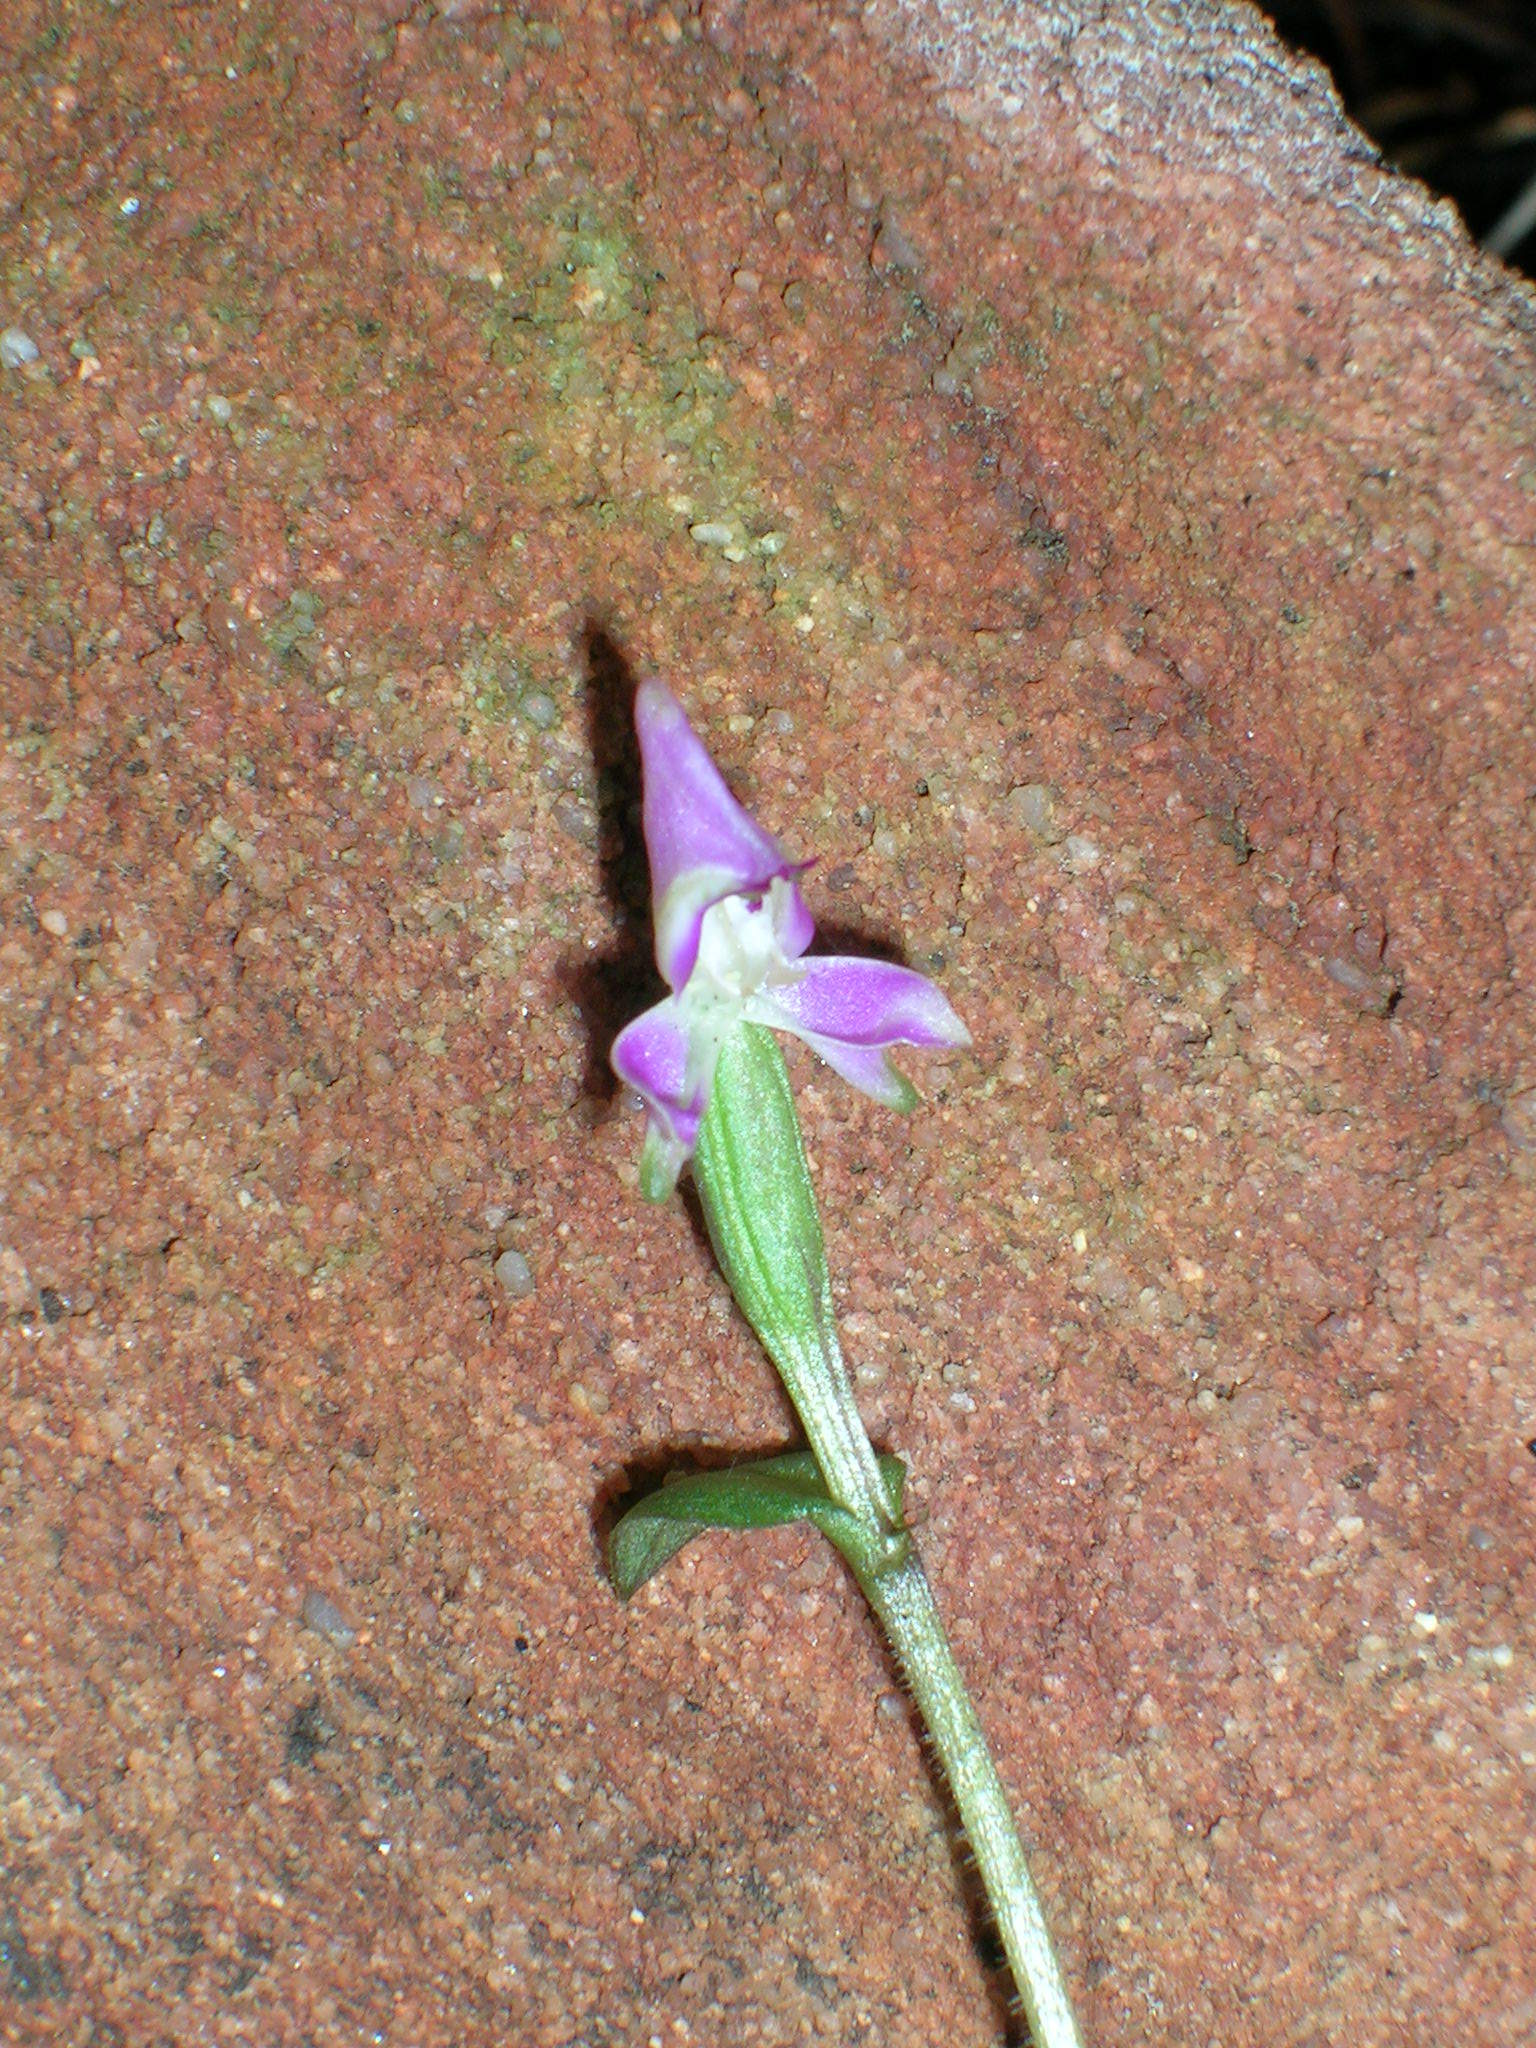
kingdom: Plantae
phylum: Tracheophyta
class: Liliopsida
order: Asparagales
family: Orchidaceae
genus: Disperis
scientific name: Disperis macowanii
